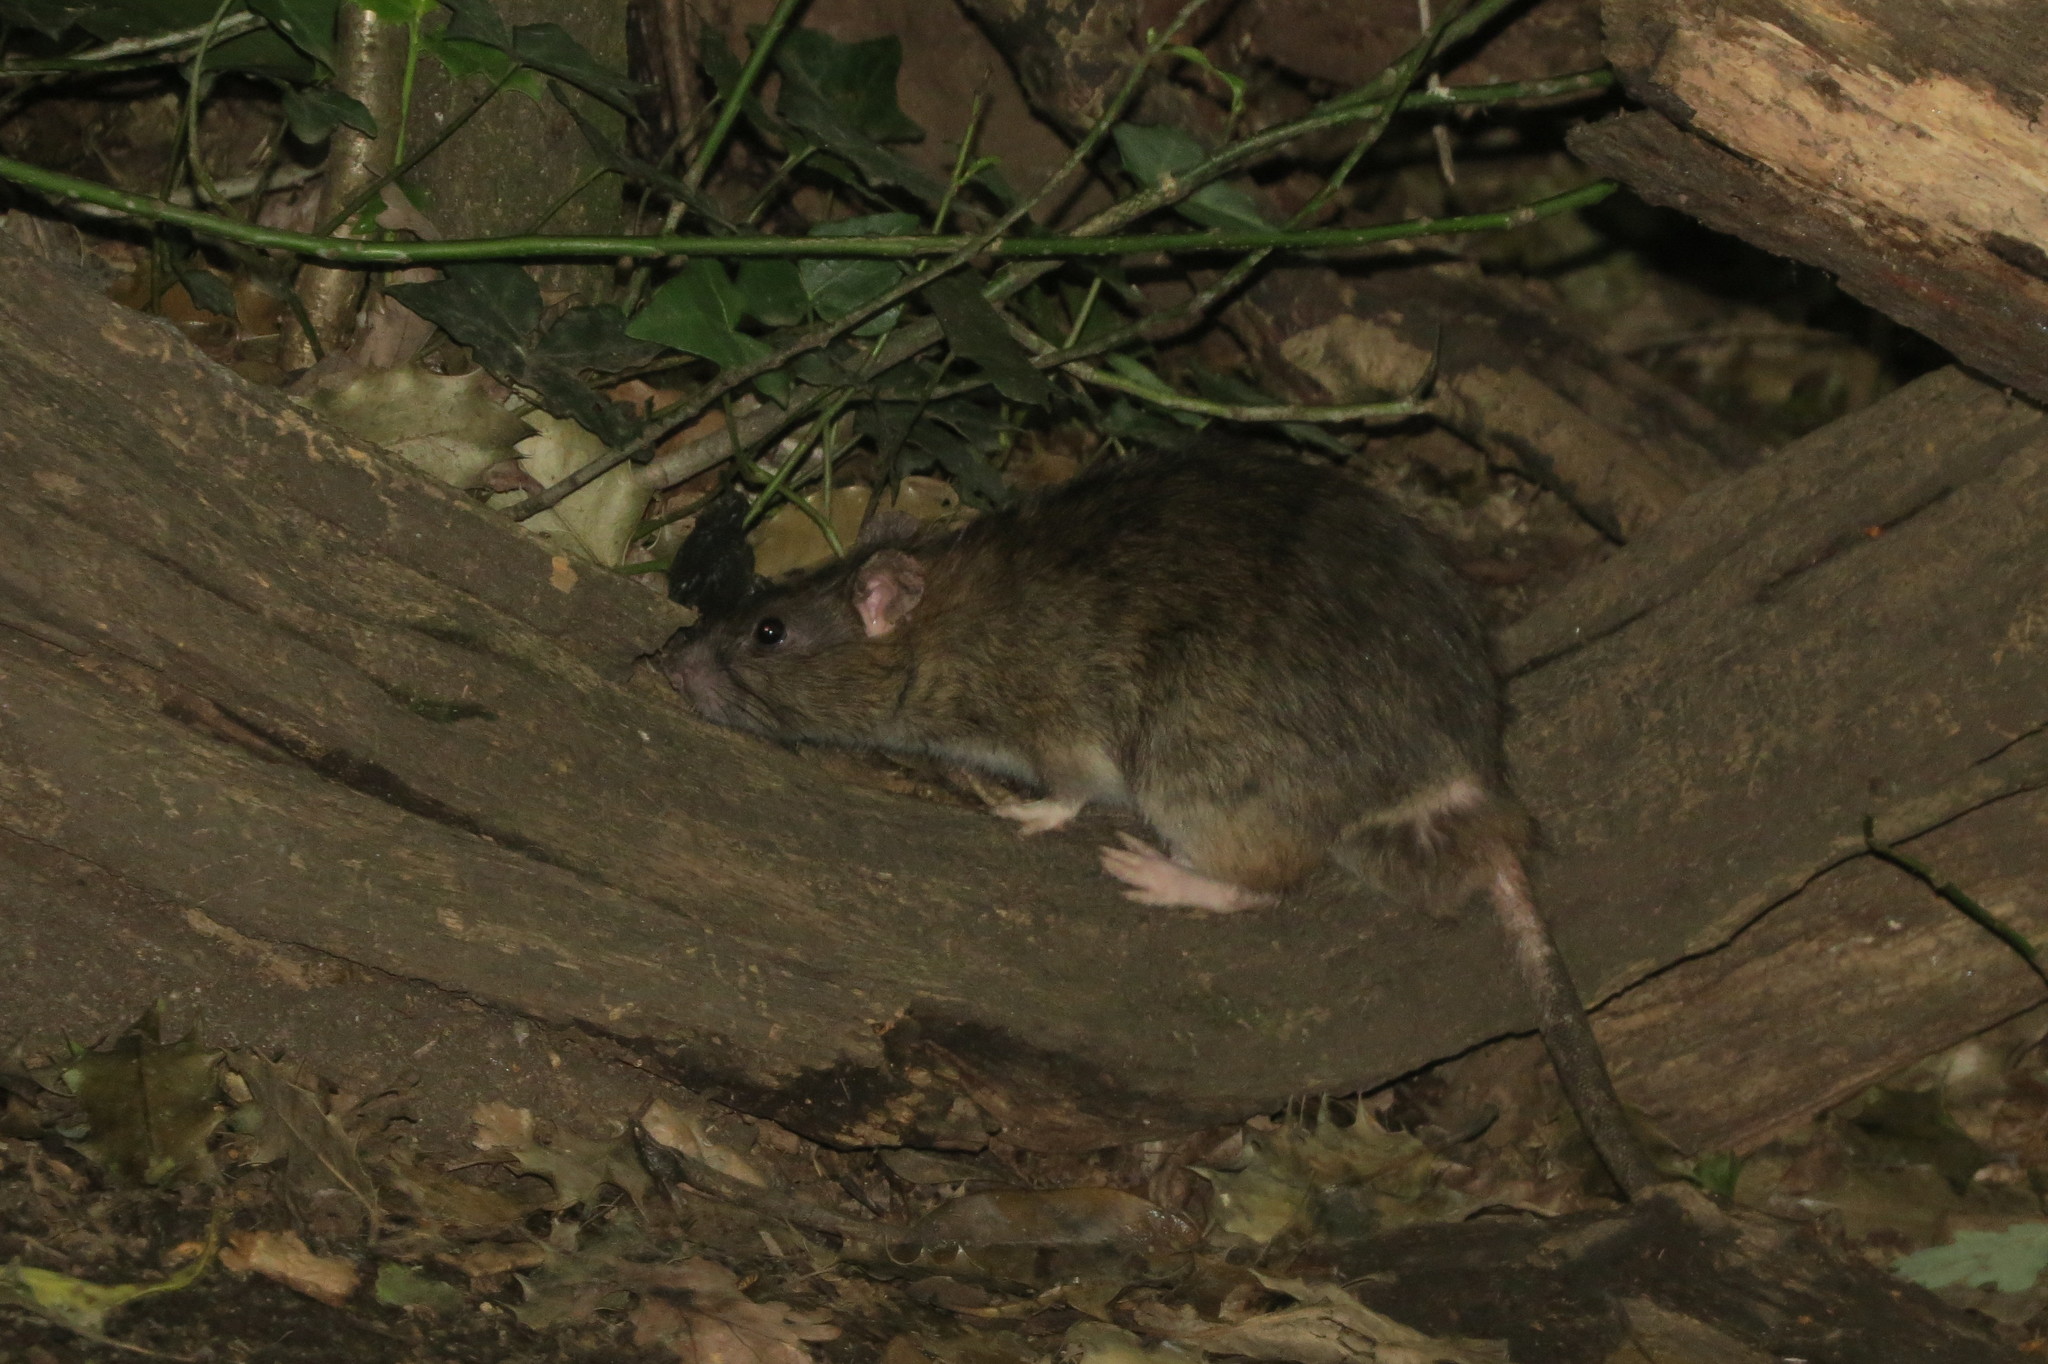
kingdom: Animalia
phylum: Chordata
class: Mammalia
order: Rodentia
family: Muridae
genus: Rattus
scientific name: Rattus norvegicus
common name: Brown rat
